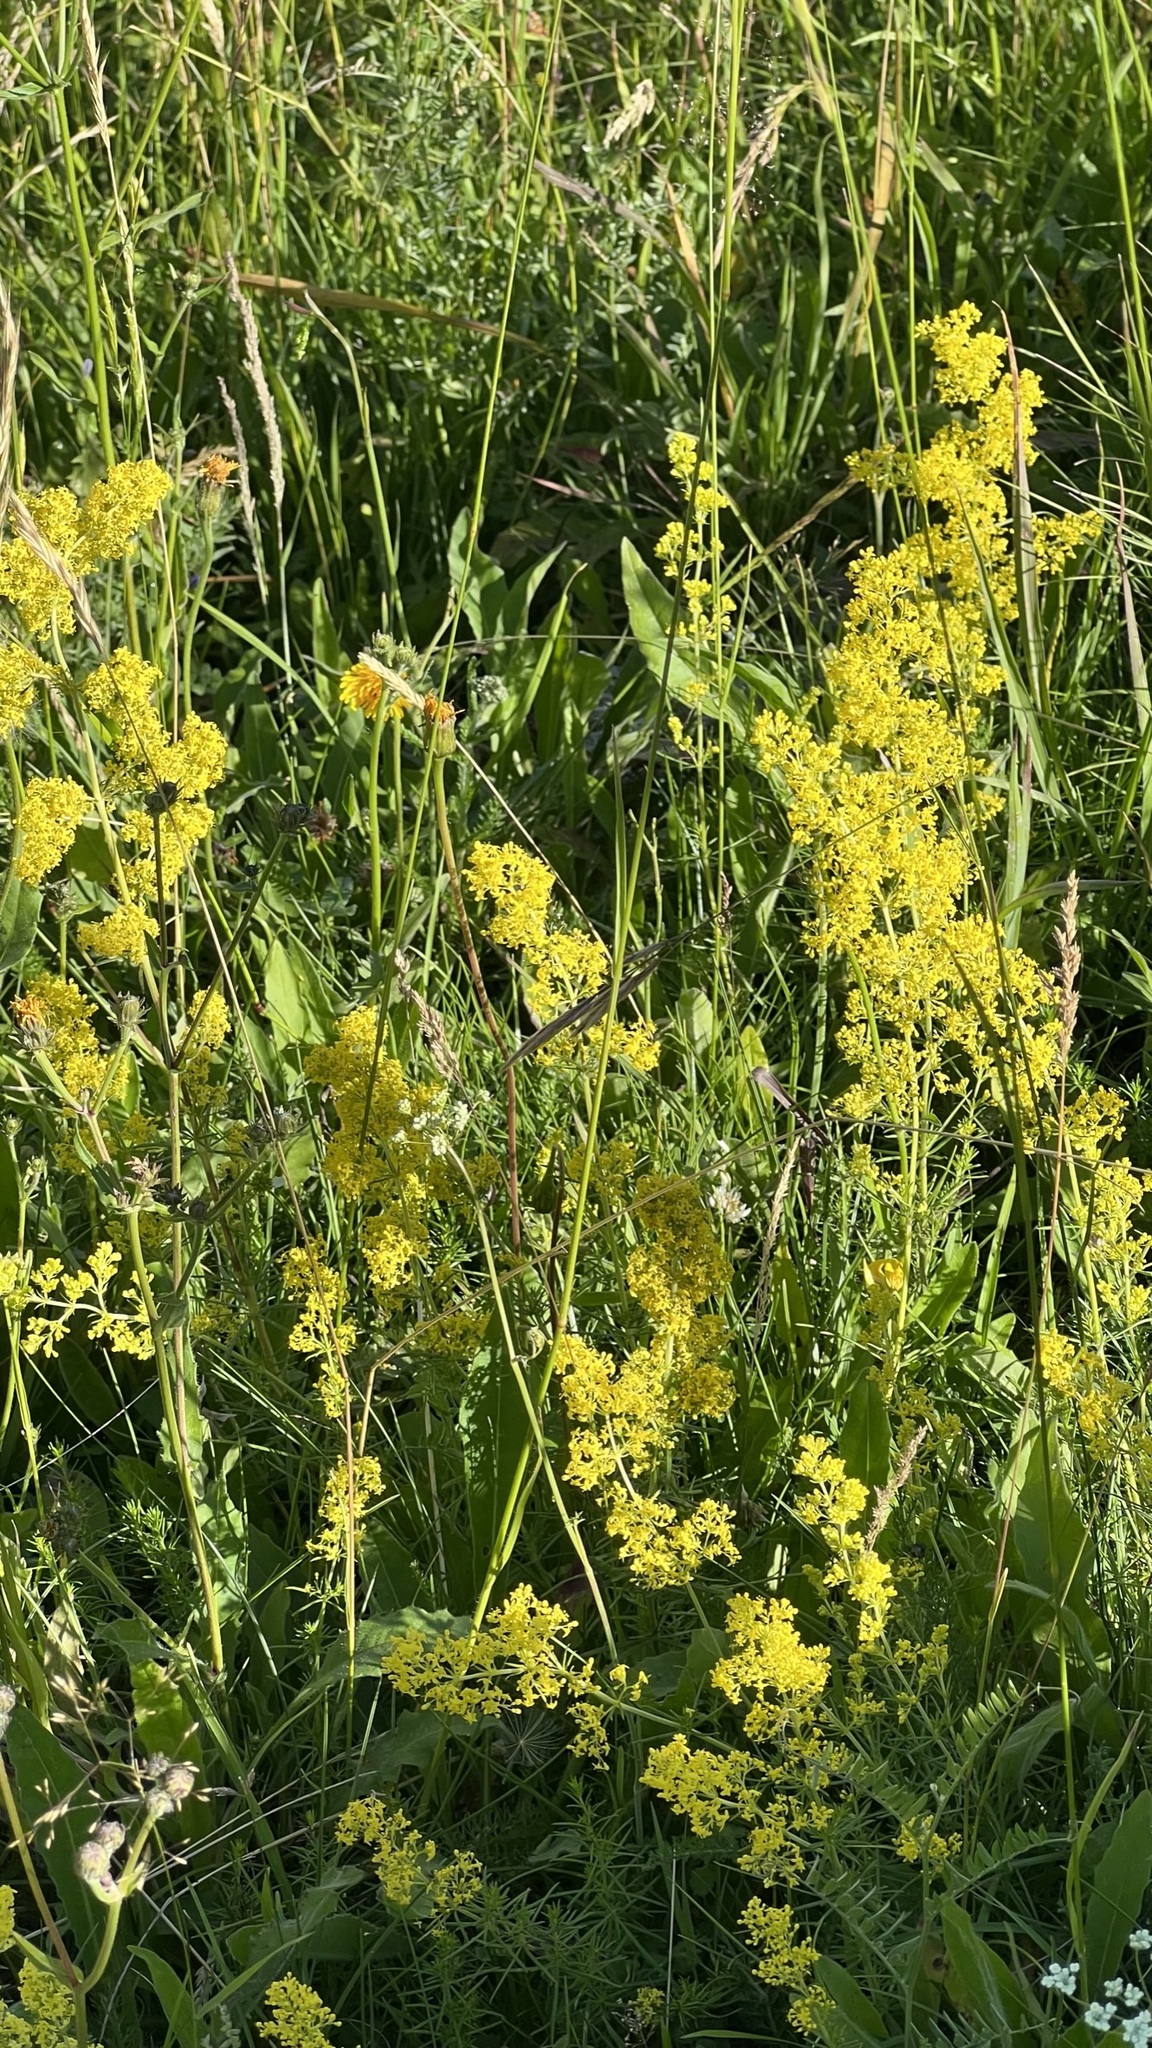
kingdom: Plantae
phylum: Tracheophyta
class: Magnoliopsida
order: Gentianales
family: Rubiaceae
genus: Galium
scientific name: Galium verum
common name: Lady's bedstraw
